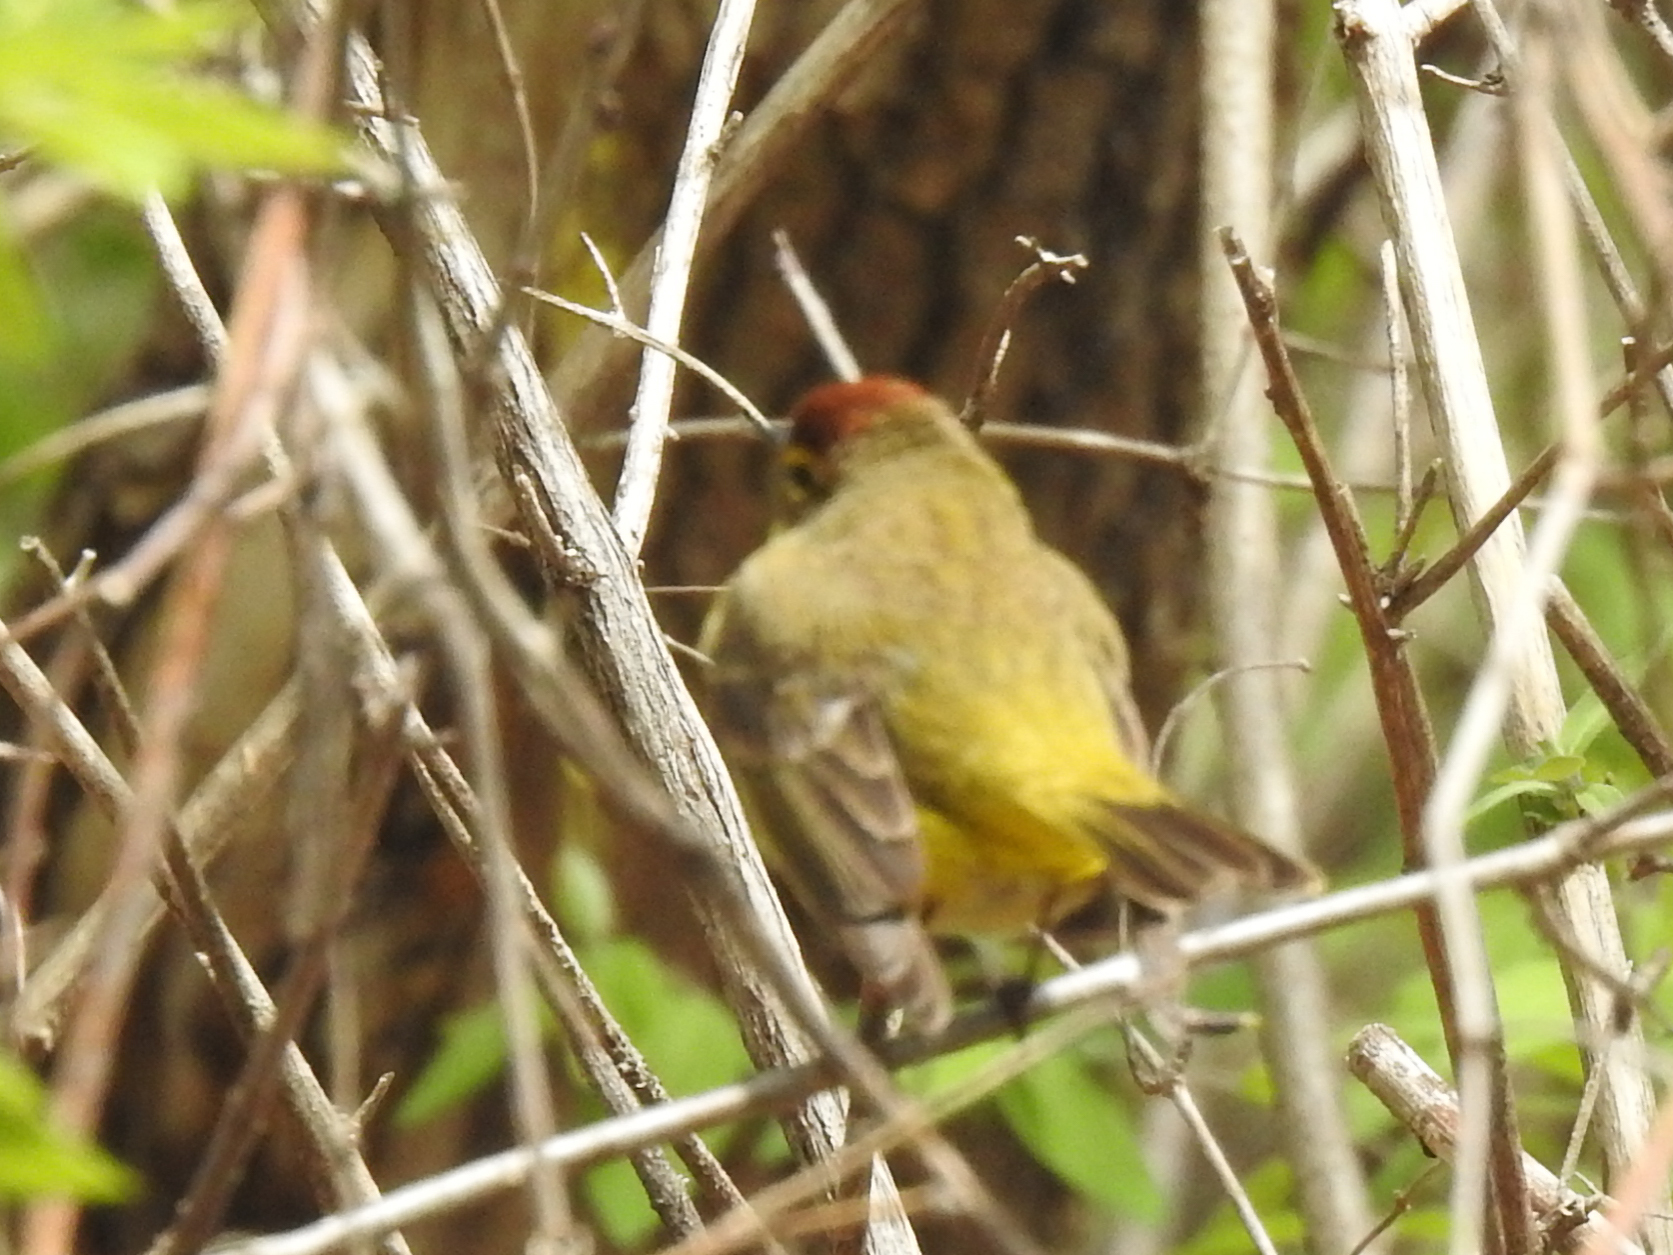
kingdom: Animalia
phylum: Chordata
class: Aves
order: Passeriformes
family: Parulidae
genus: Setophaga
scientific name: Setophaga palmarum
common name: Palm warbler
